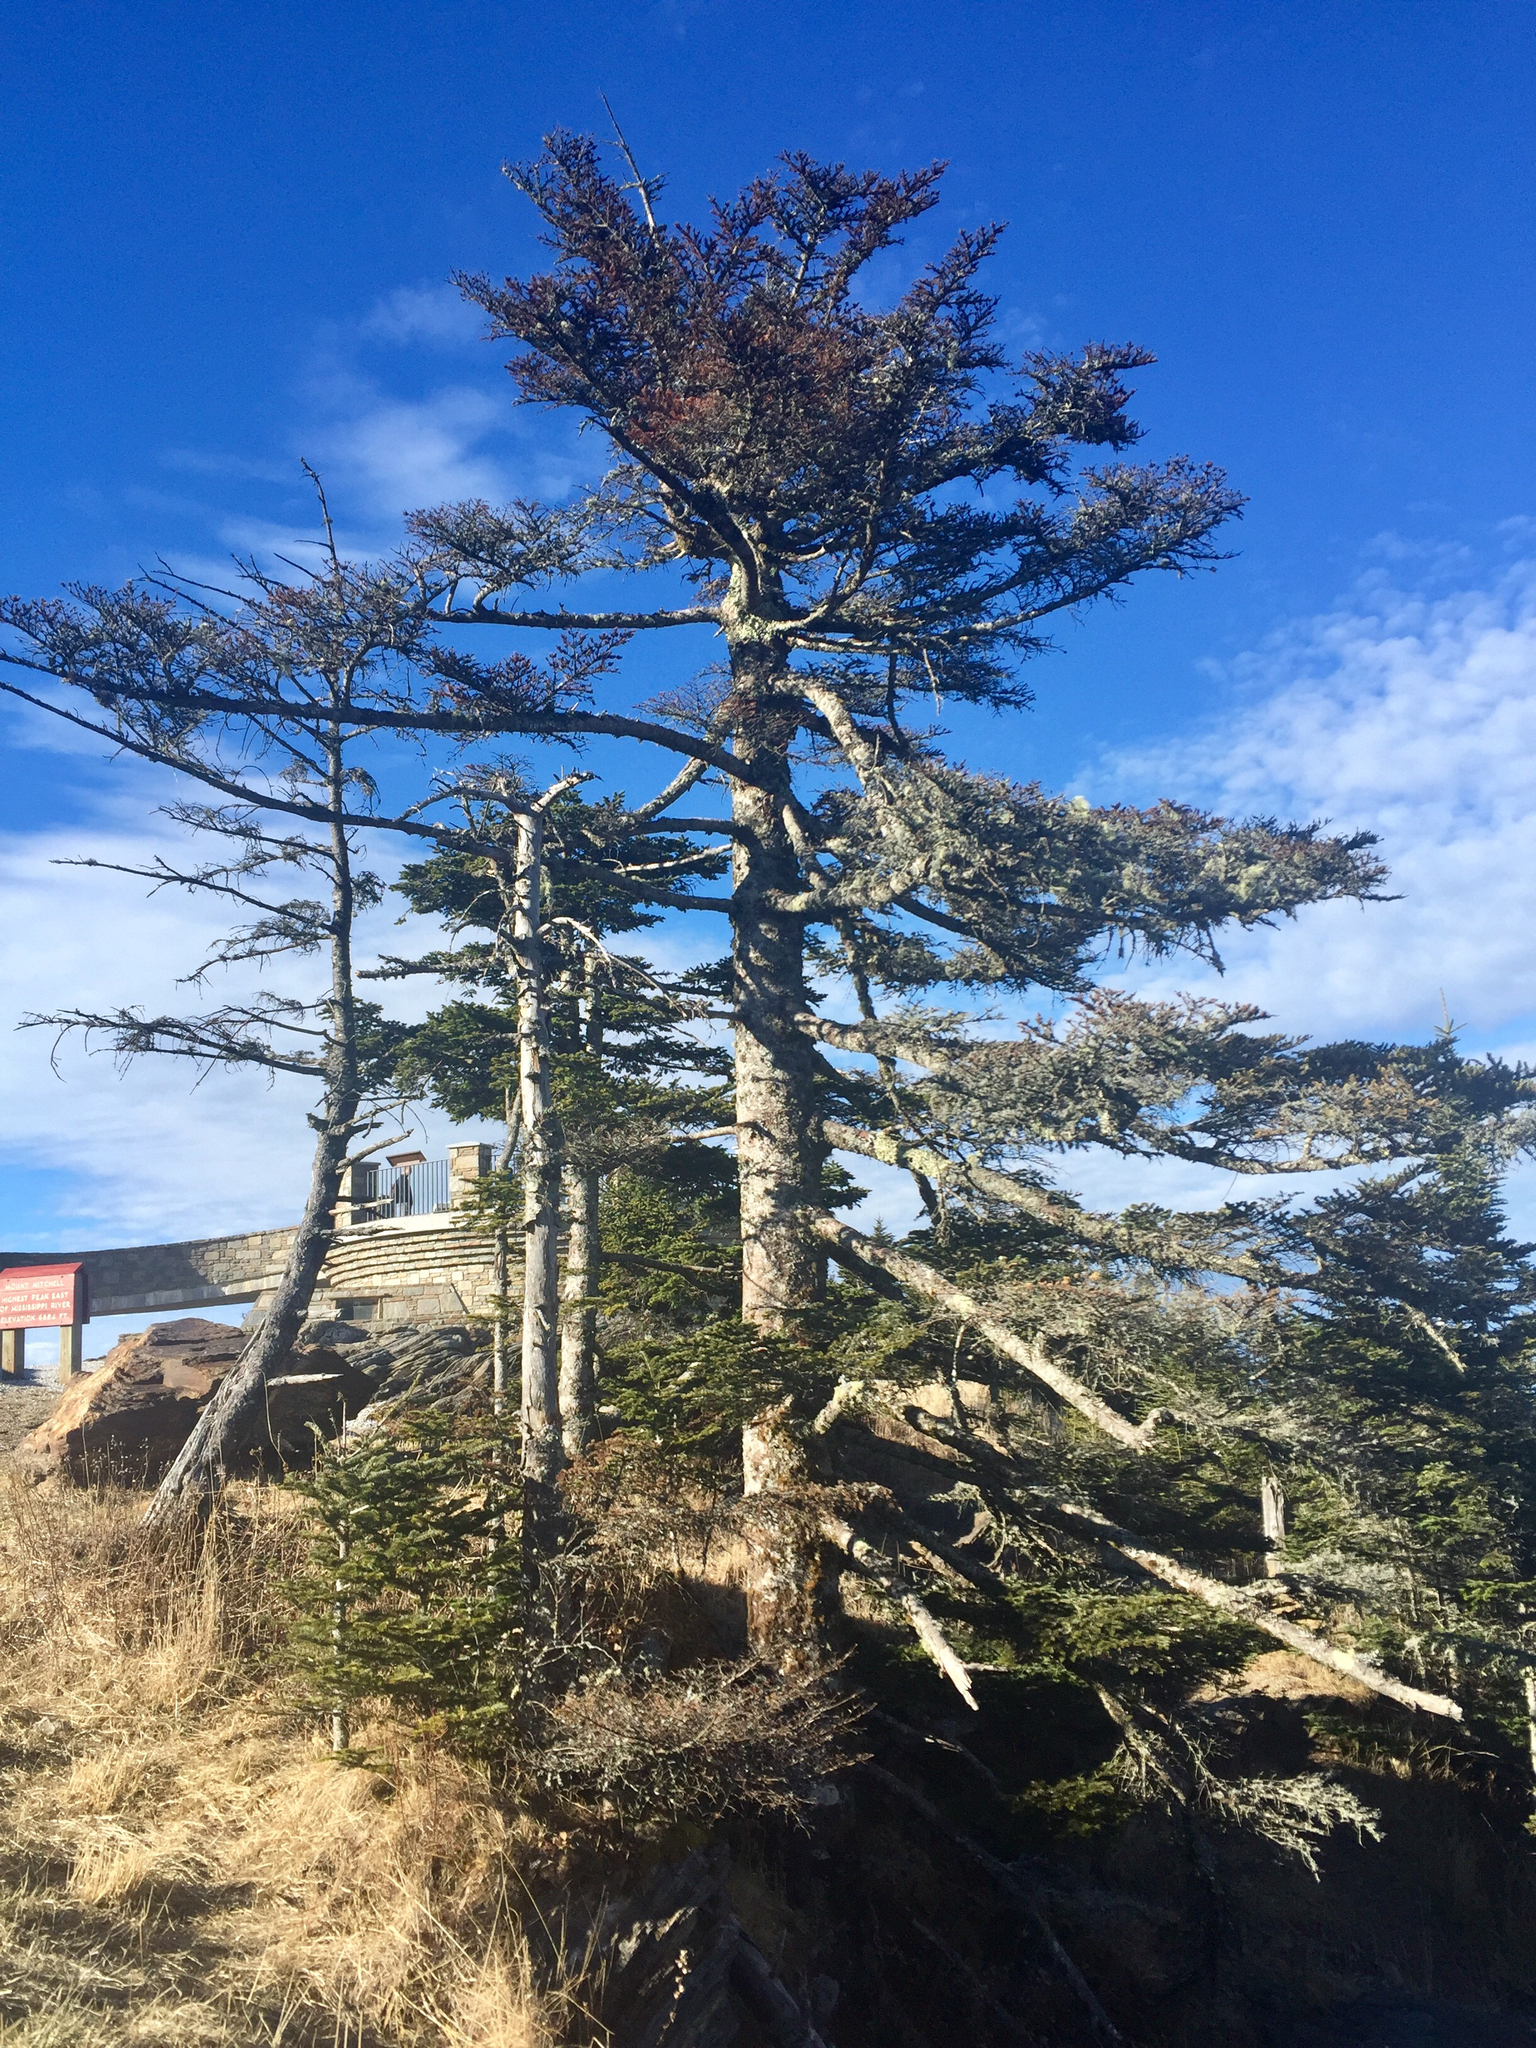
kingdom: Plantae
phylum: Tracheophyta
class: Pinopsida
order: Pinales
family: Pinaceae
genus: Abies
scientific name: Abies fraseri
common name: Fraser fir
